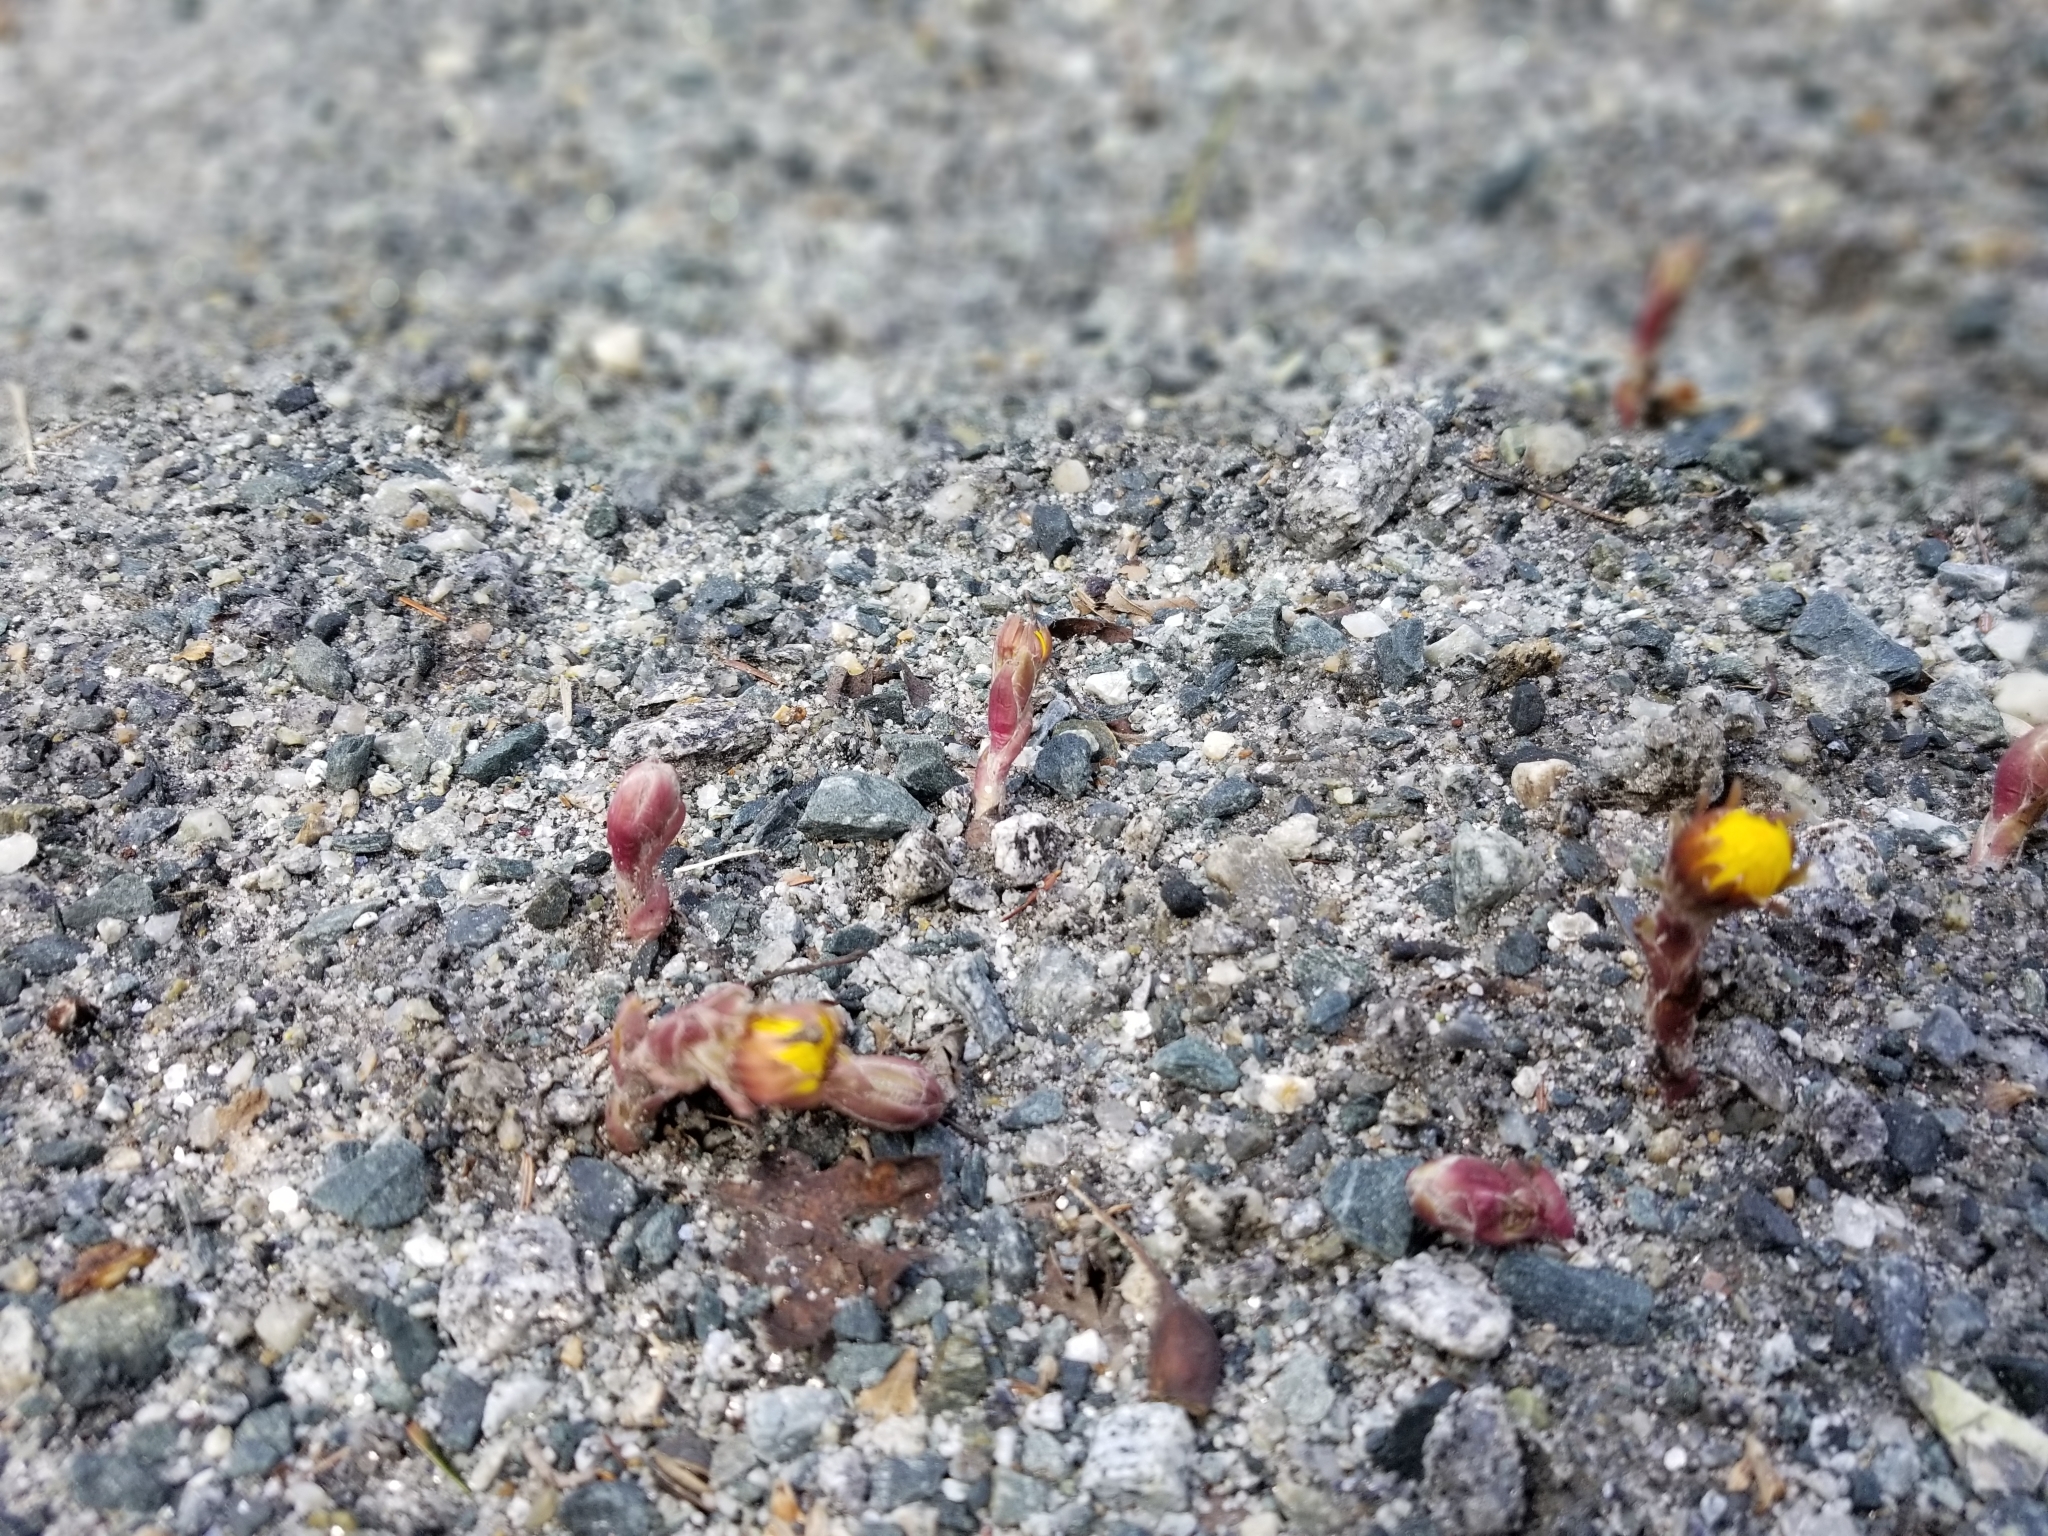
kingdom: Plantae
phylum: Tracheophyta
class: Magnoliopsida
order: Asterales
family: Asteraceae
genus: Tussilago
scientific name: Tussilago farfara
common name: Coltsfoot
